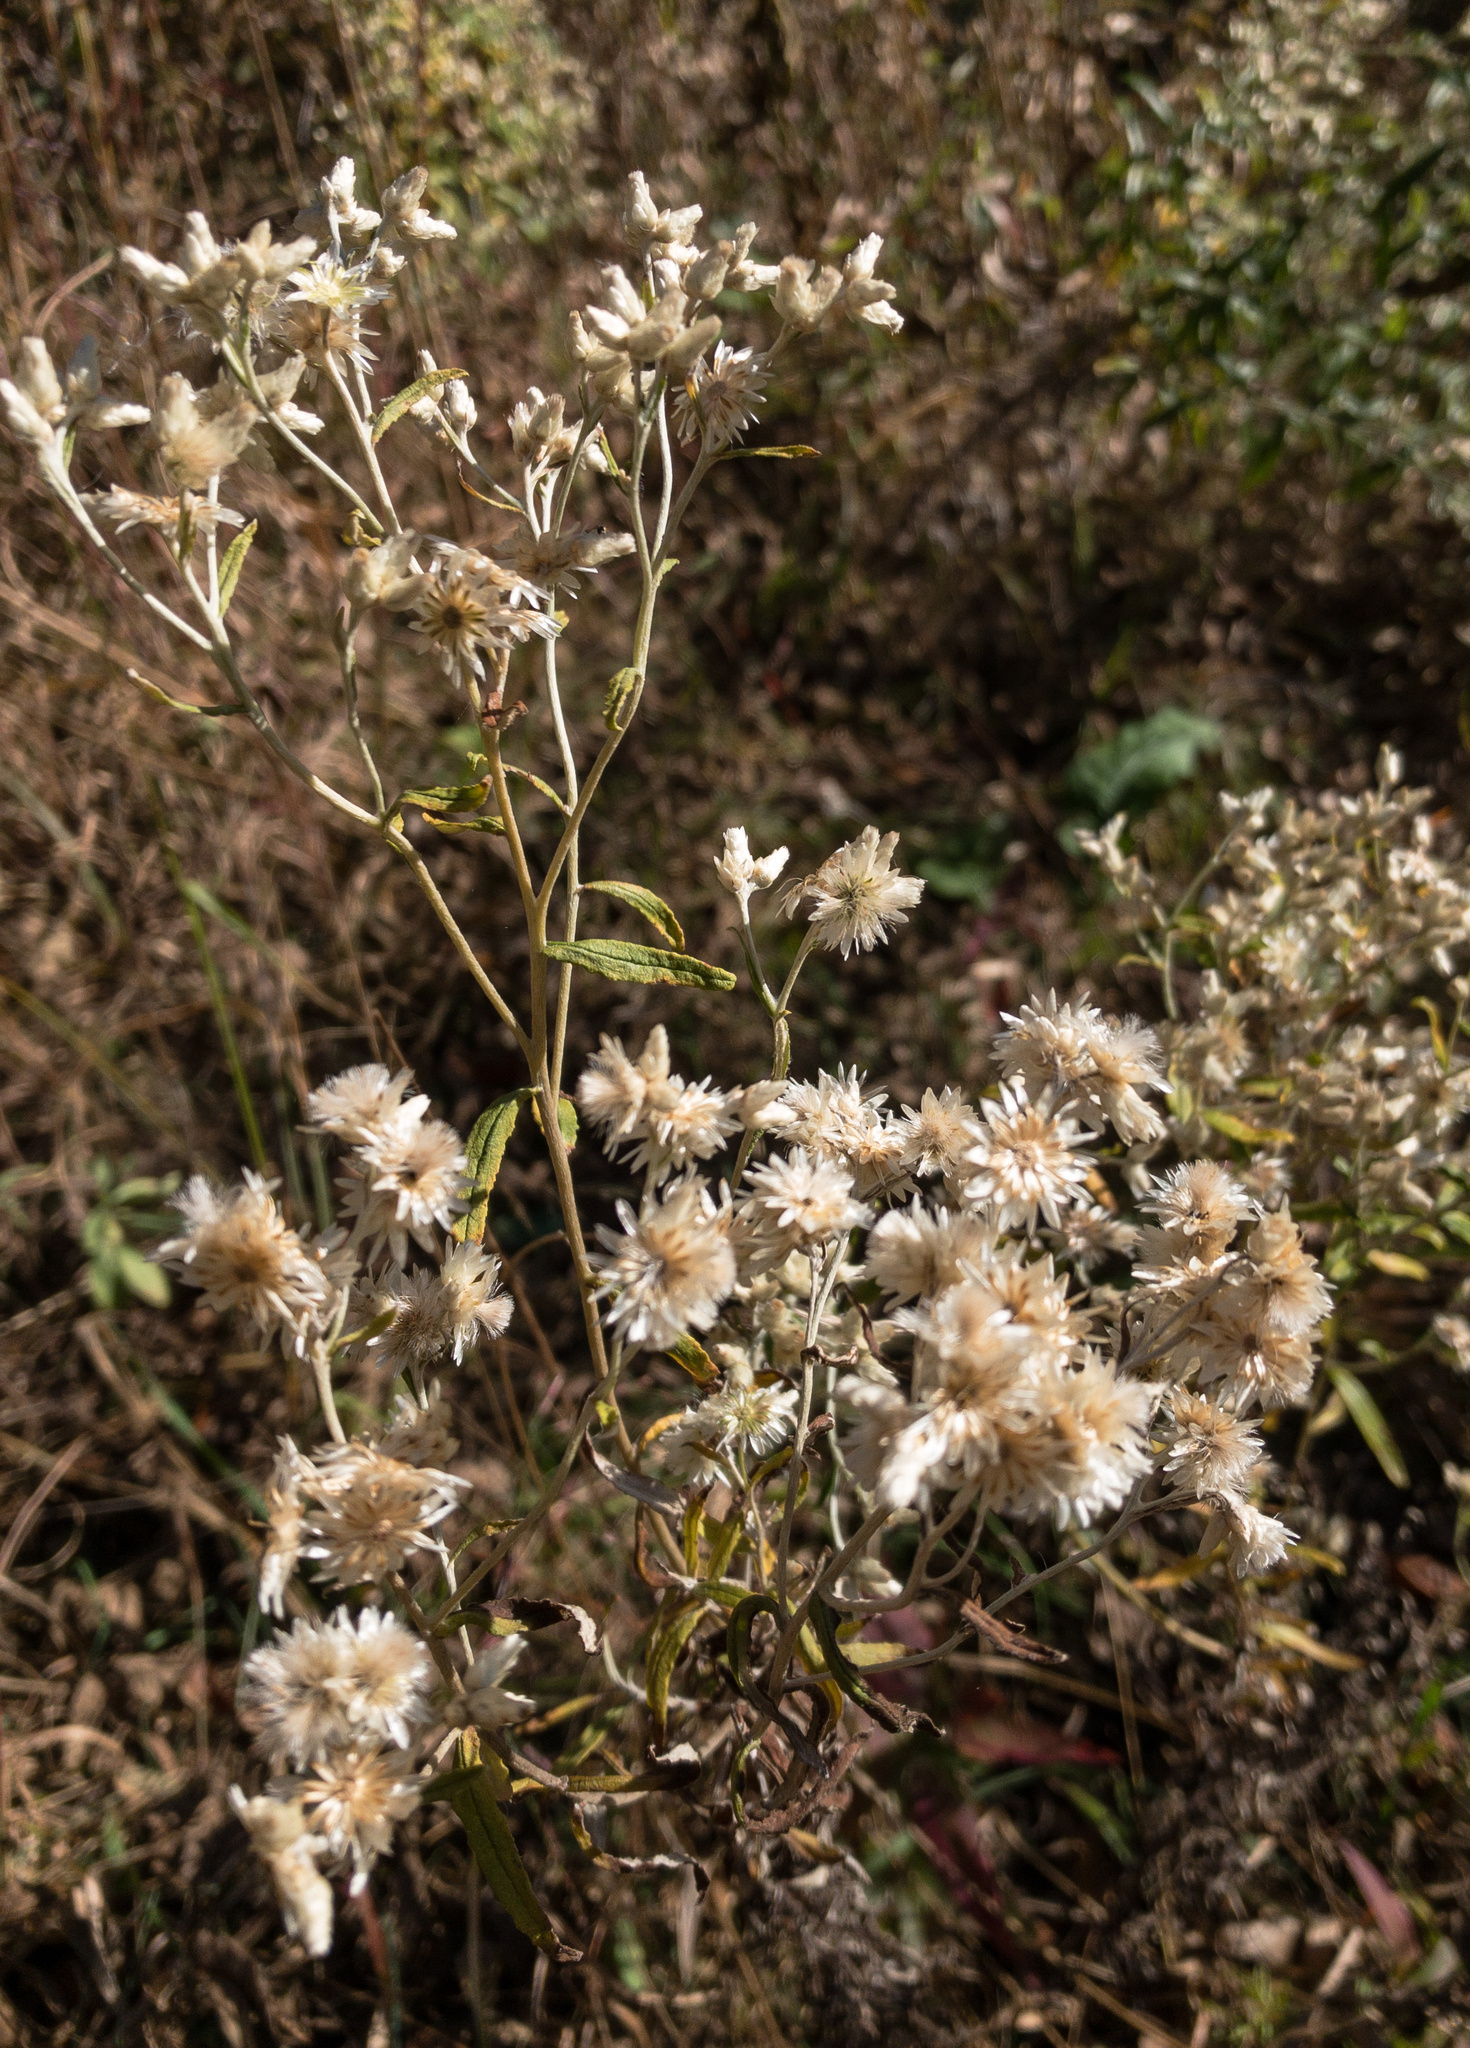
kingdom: Plantae
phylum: Tracheophyta
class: Magnoliopsida
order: Asterales
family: Asteraceae
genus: Pseudognaphalium
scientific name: Pseudognaphalium obtusifolium
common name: Eastern rabbit-tobacco
